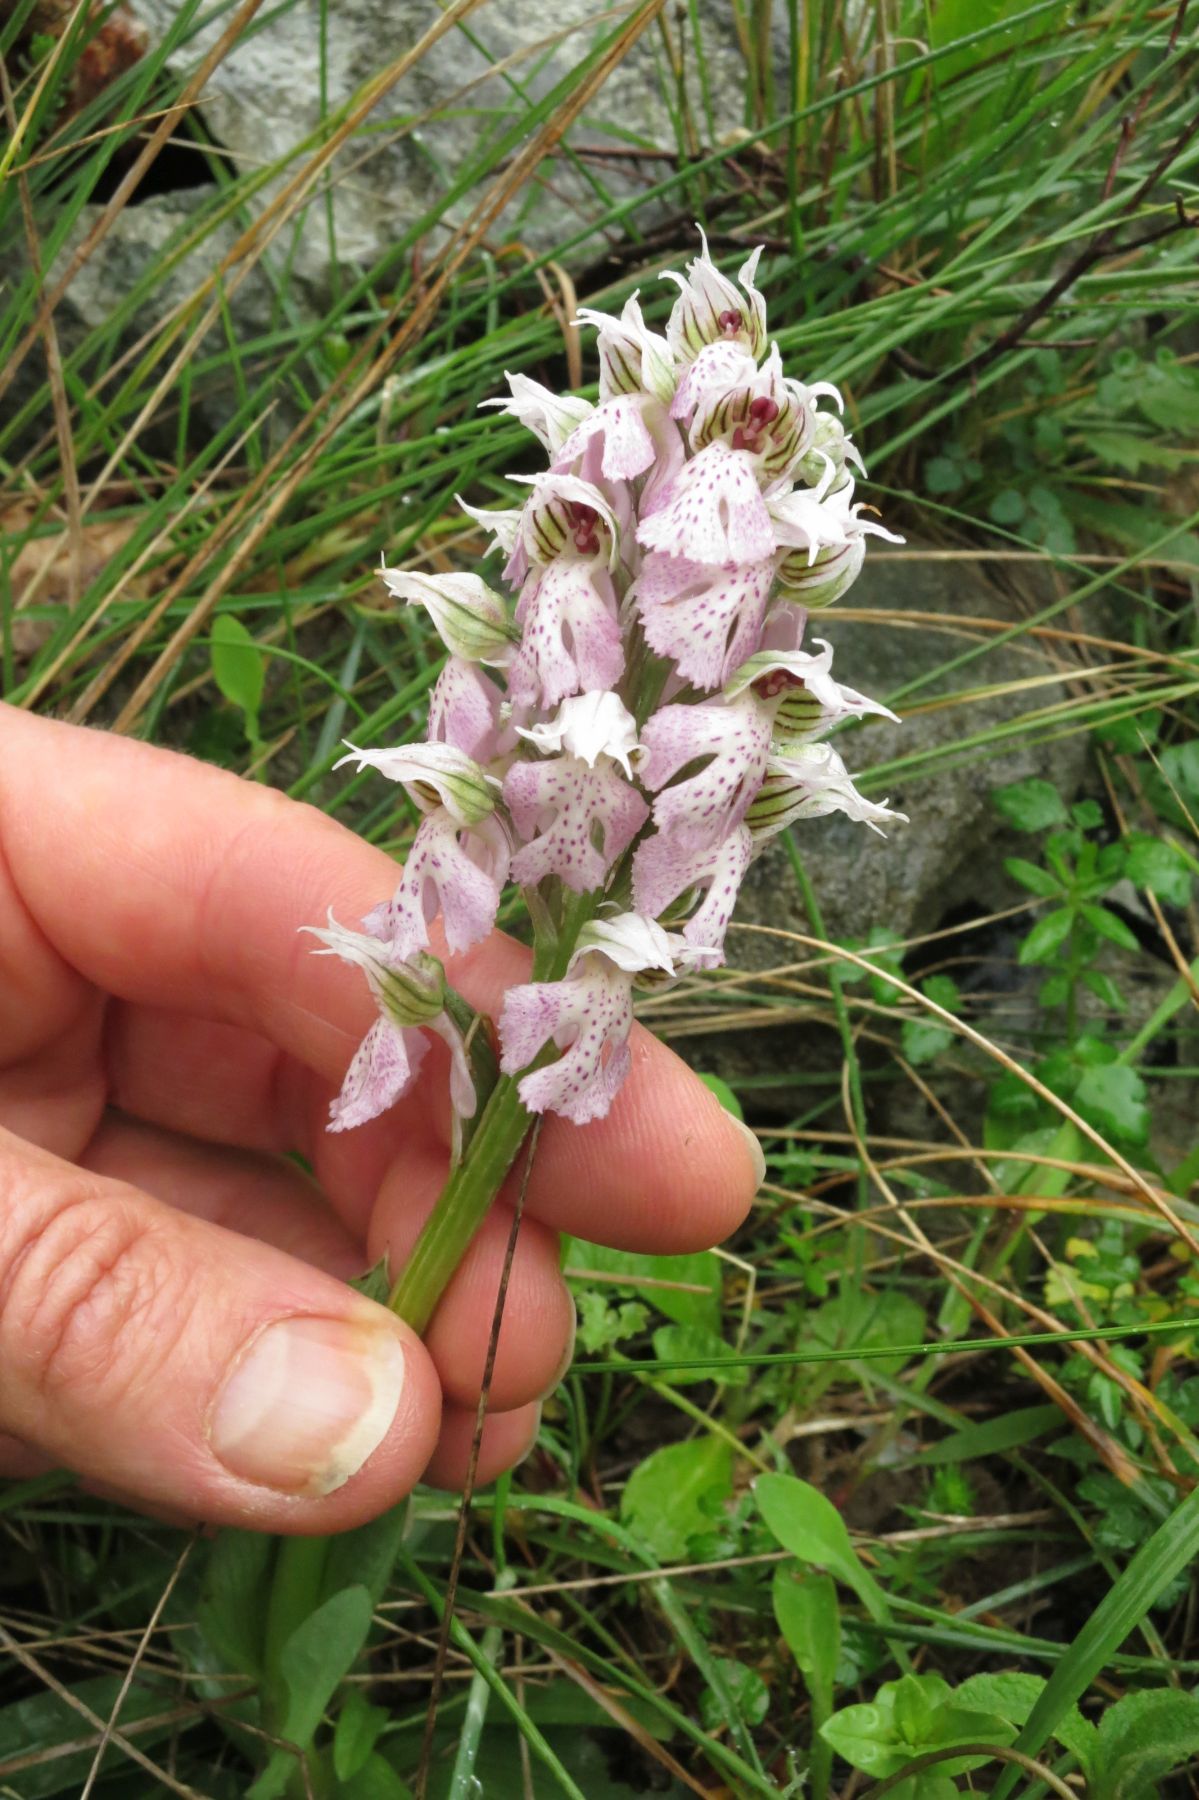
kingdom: Plantae
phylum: Tracheophyta
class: Liliopsida
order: Asparagales
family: Orchidaceae
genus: Neotinea
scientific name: Neotinea lactea
